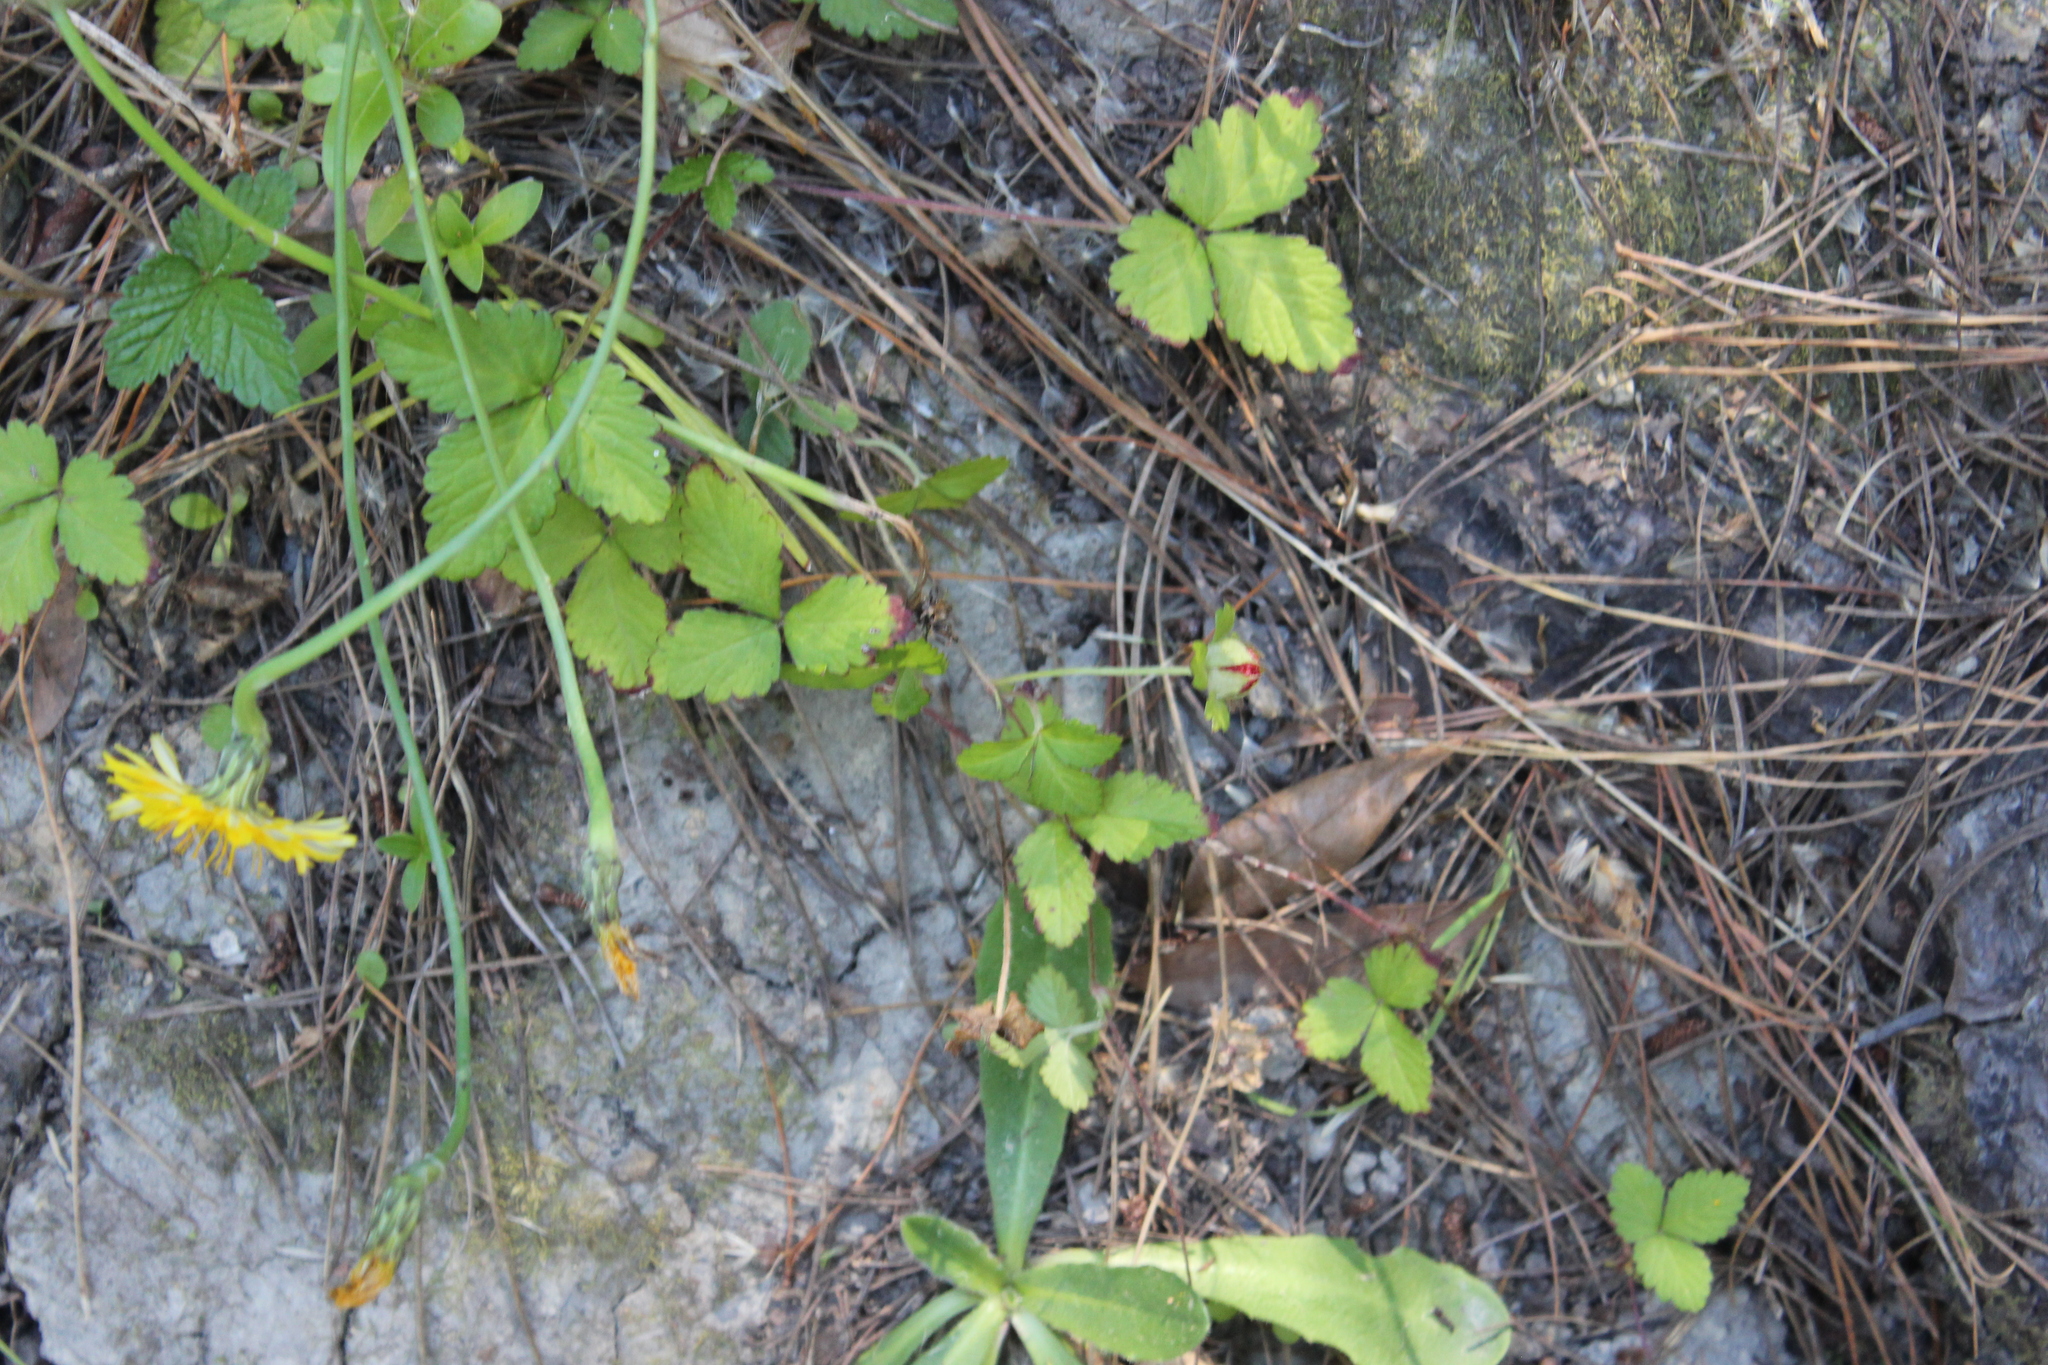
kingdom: Plantae
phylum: Tracheophyta
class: Magnoliopsida
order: Rosales
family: Rosaceae
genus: Potentilla
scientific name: Potentilla indica
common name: Yellow-flowered strawberry
